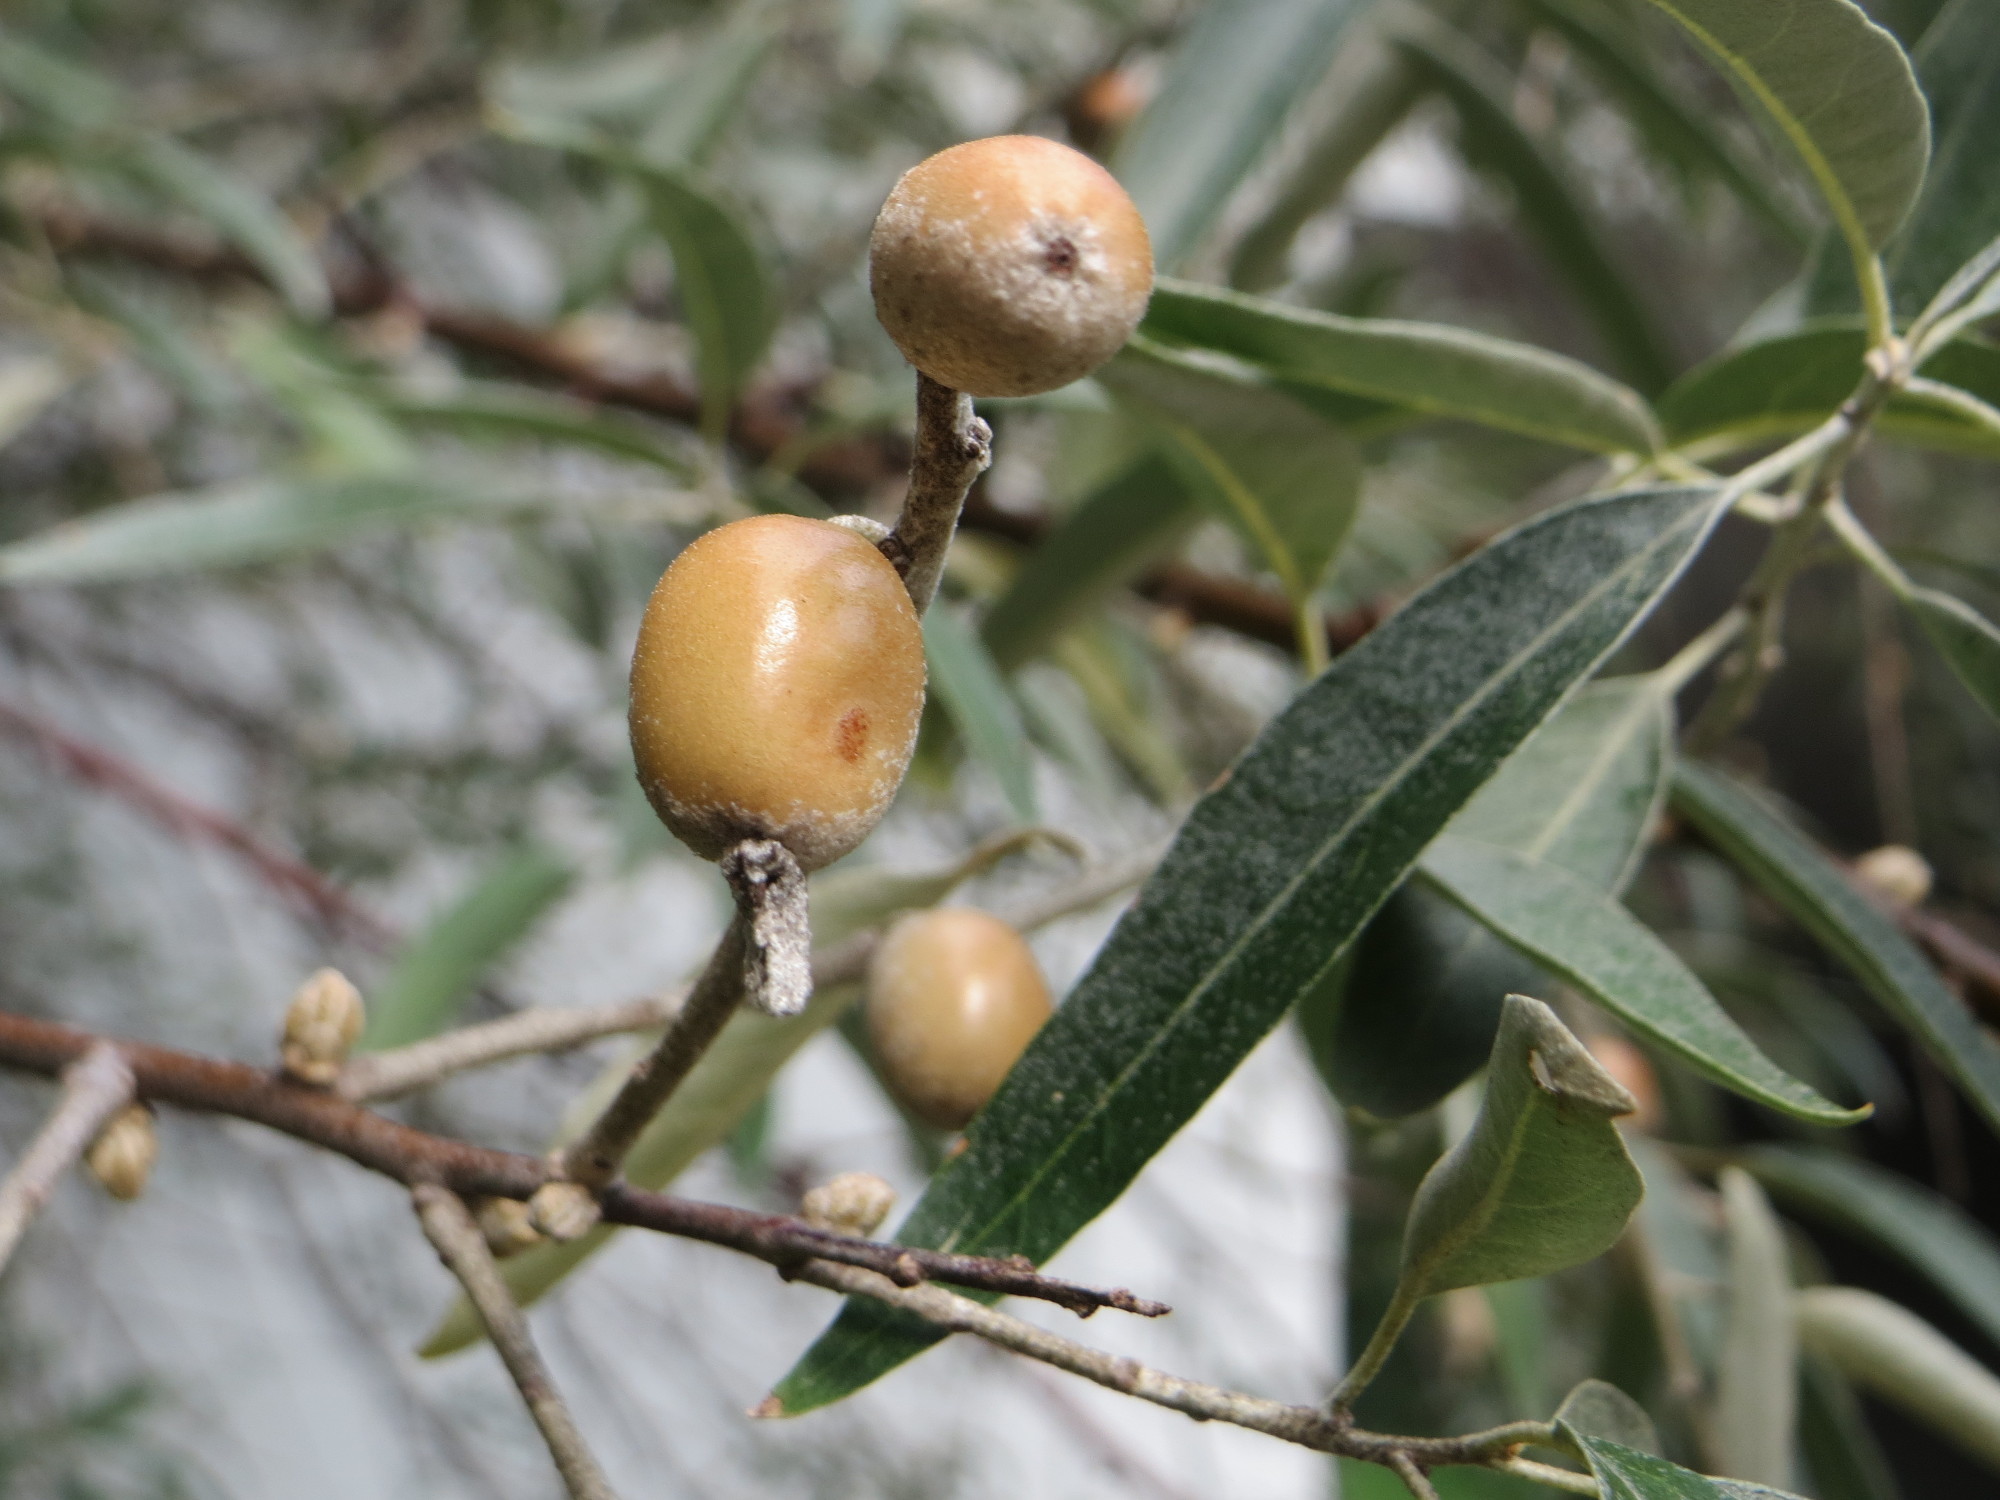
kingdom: Plantae
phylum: Tracheophyta
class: Magnoliopsida
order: Rosales
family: Elaeagnaceae
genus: Elaeagnus
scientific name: Elaeagnus angustifolia
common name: Russian olive
